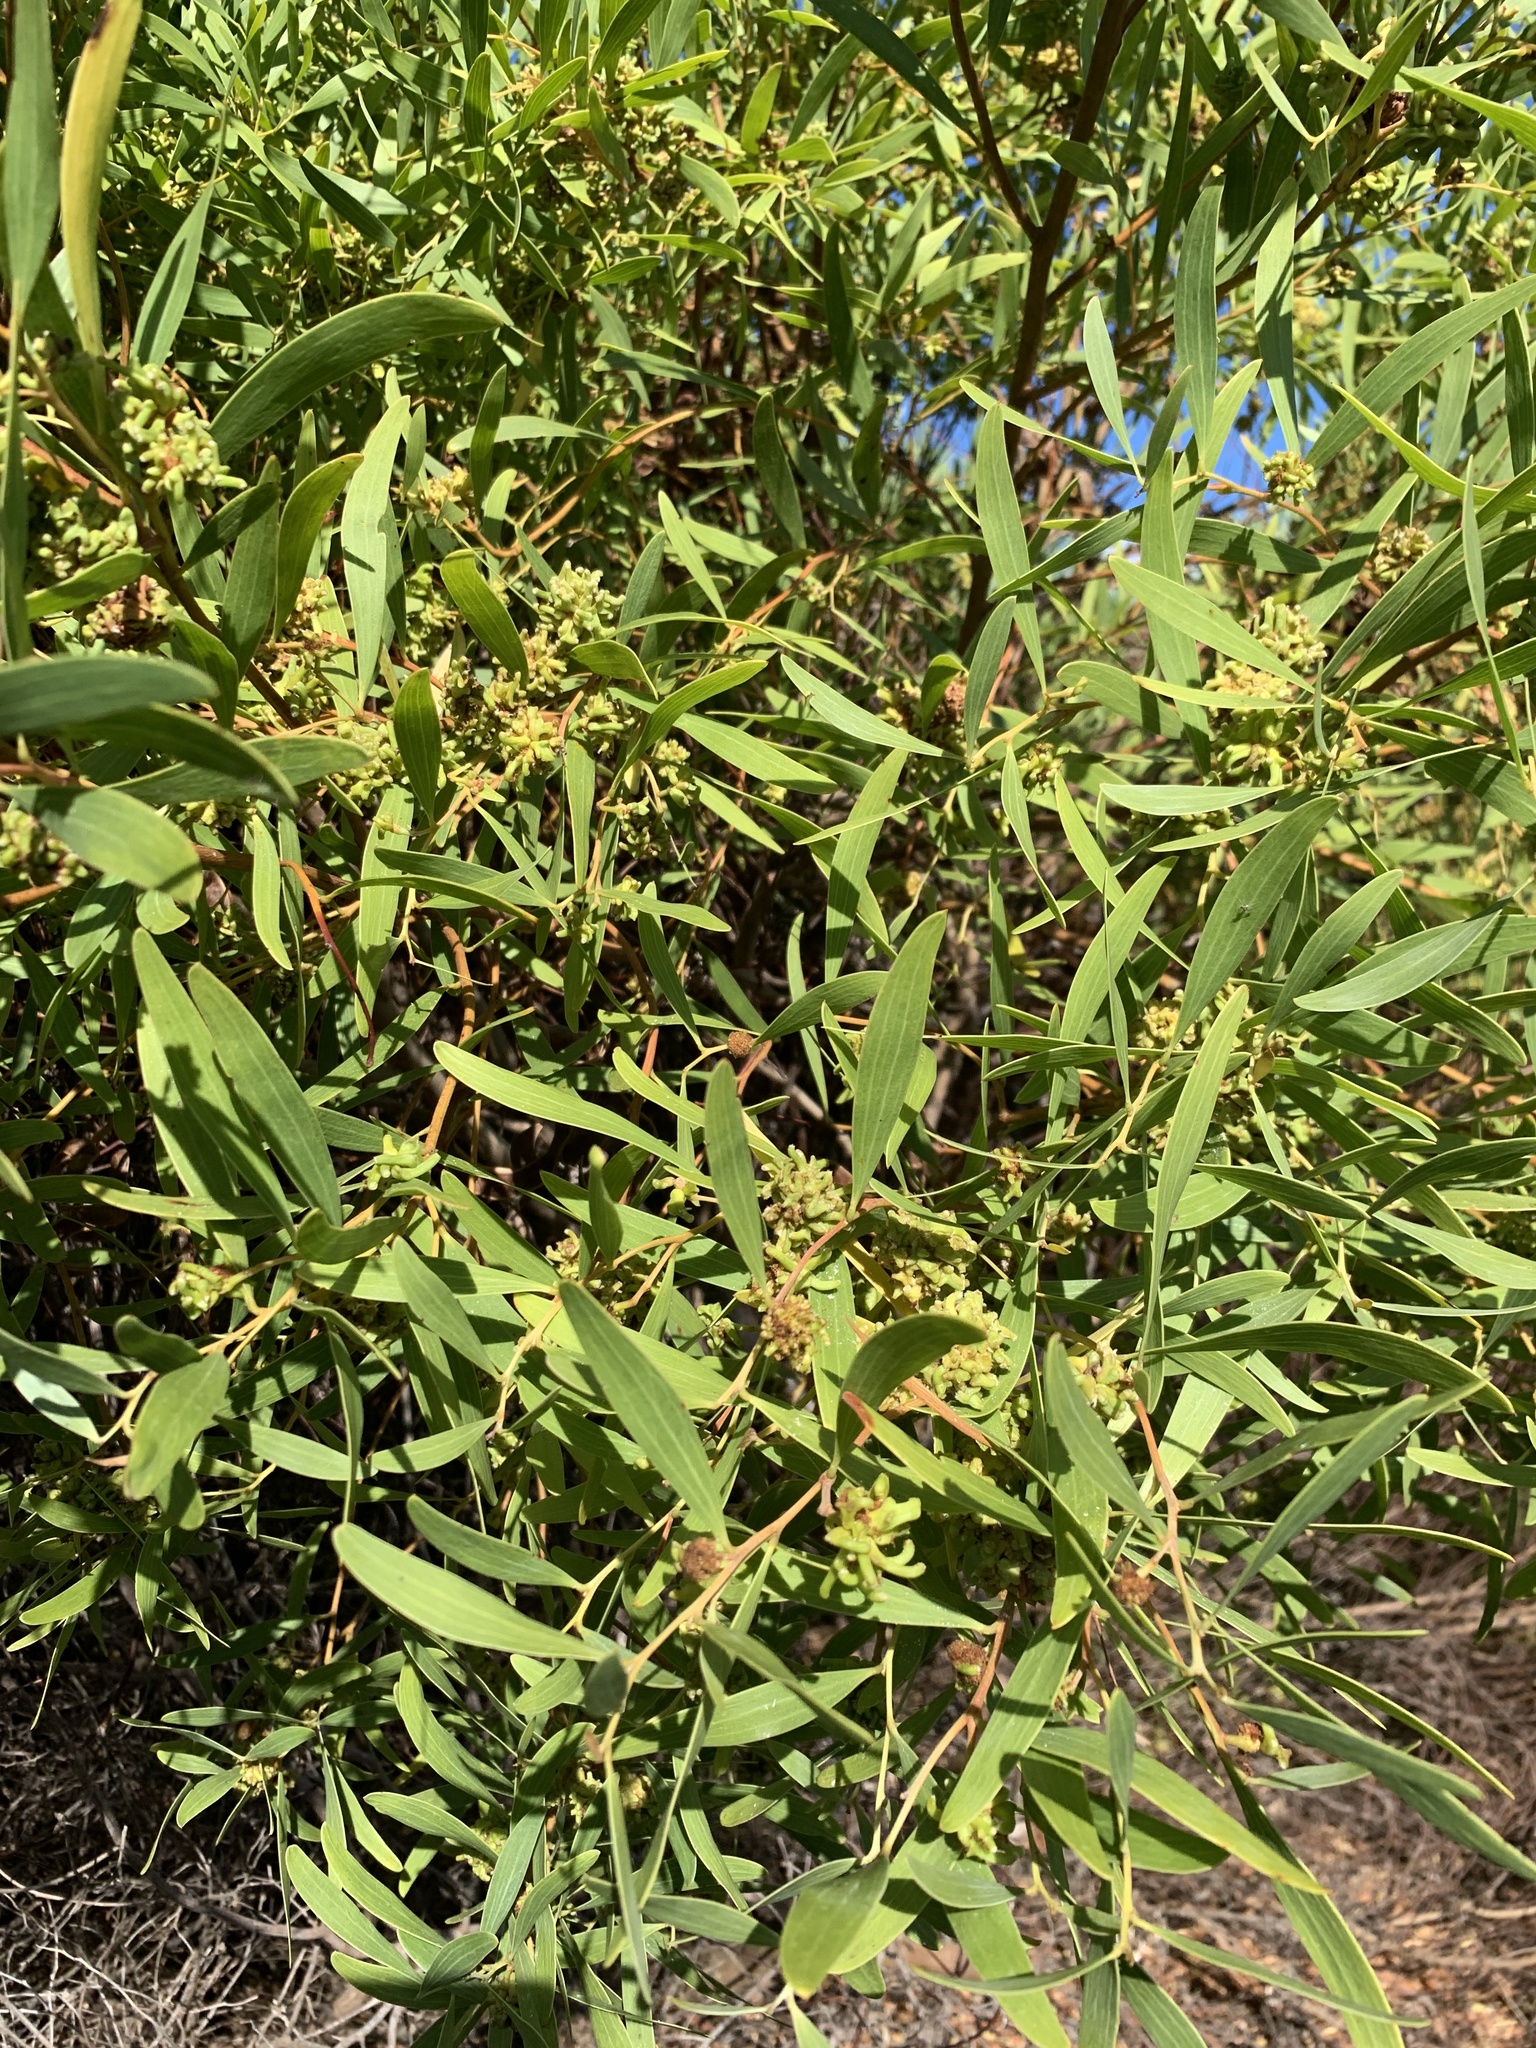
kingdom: Animalia
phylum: Arthropoda
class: Insecta
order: Diptera
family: Cecidomyiidae
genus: Dasineura
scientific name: Dasineura dielsi
